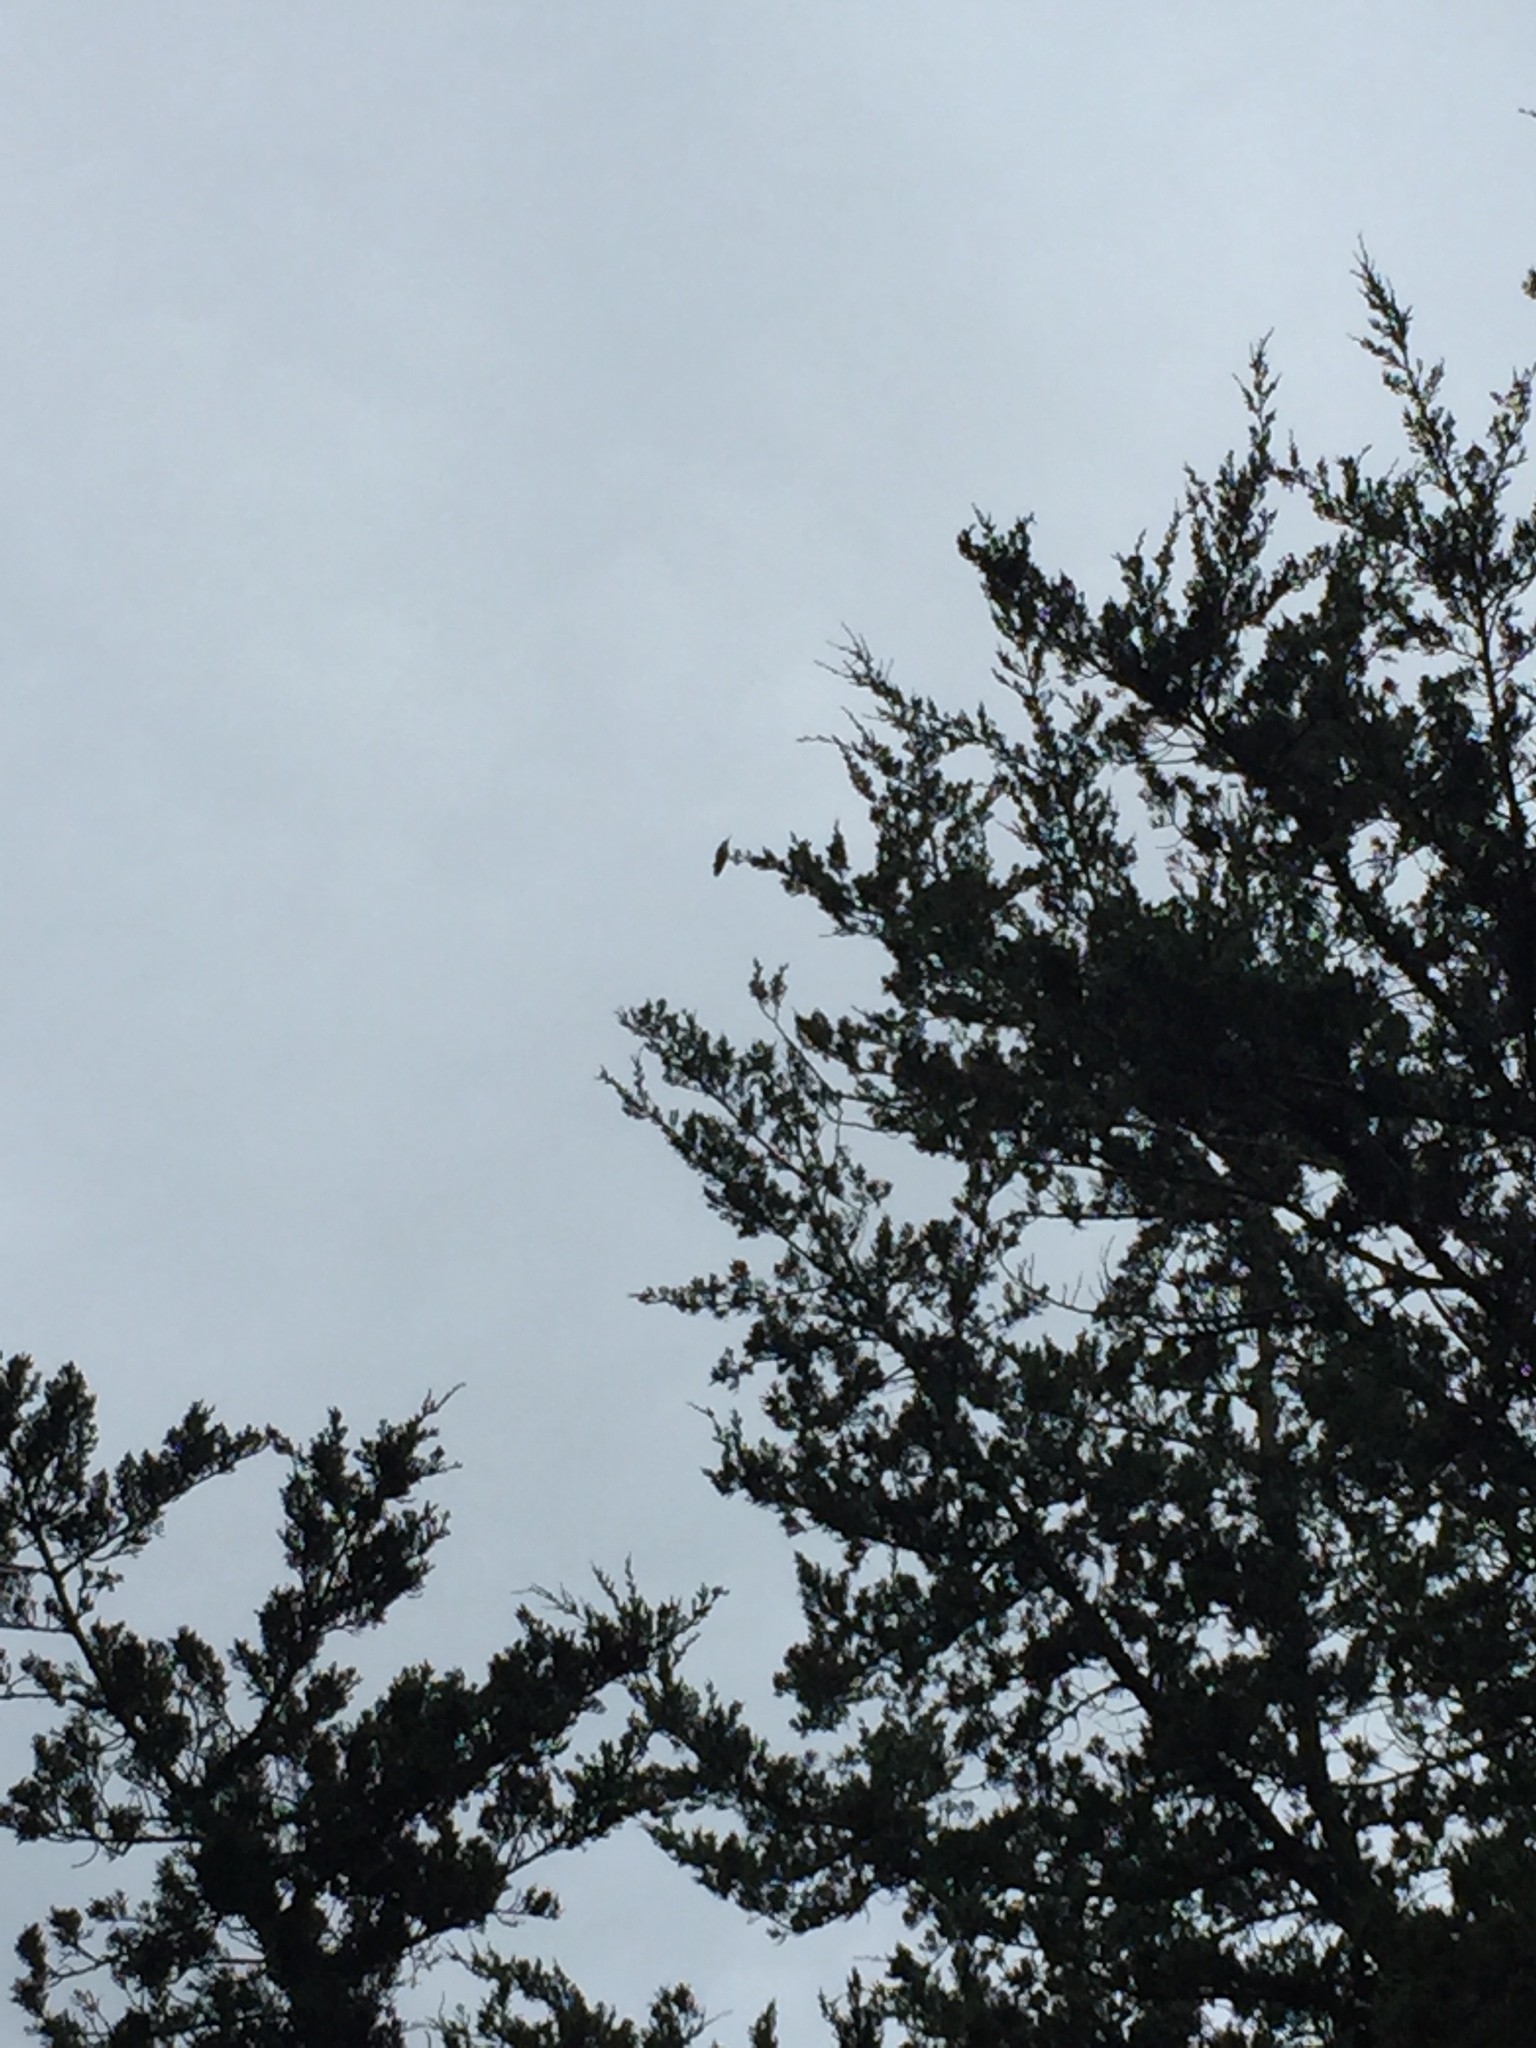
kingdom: Animalia
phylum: Chordata
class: Aves
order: Apodiformes
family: Trochilidae
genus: Archilochus
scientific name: Archilochus colubris
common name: Ruby-throated hummingbird
